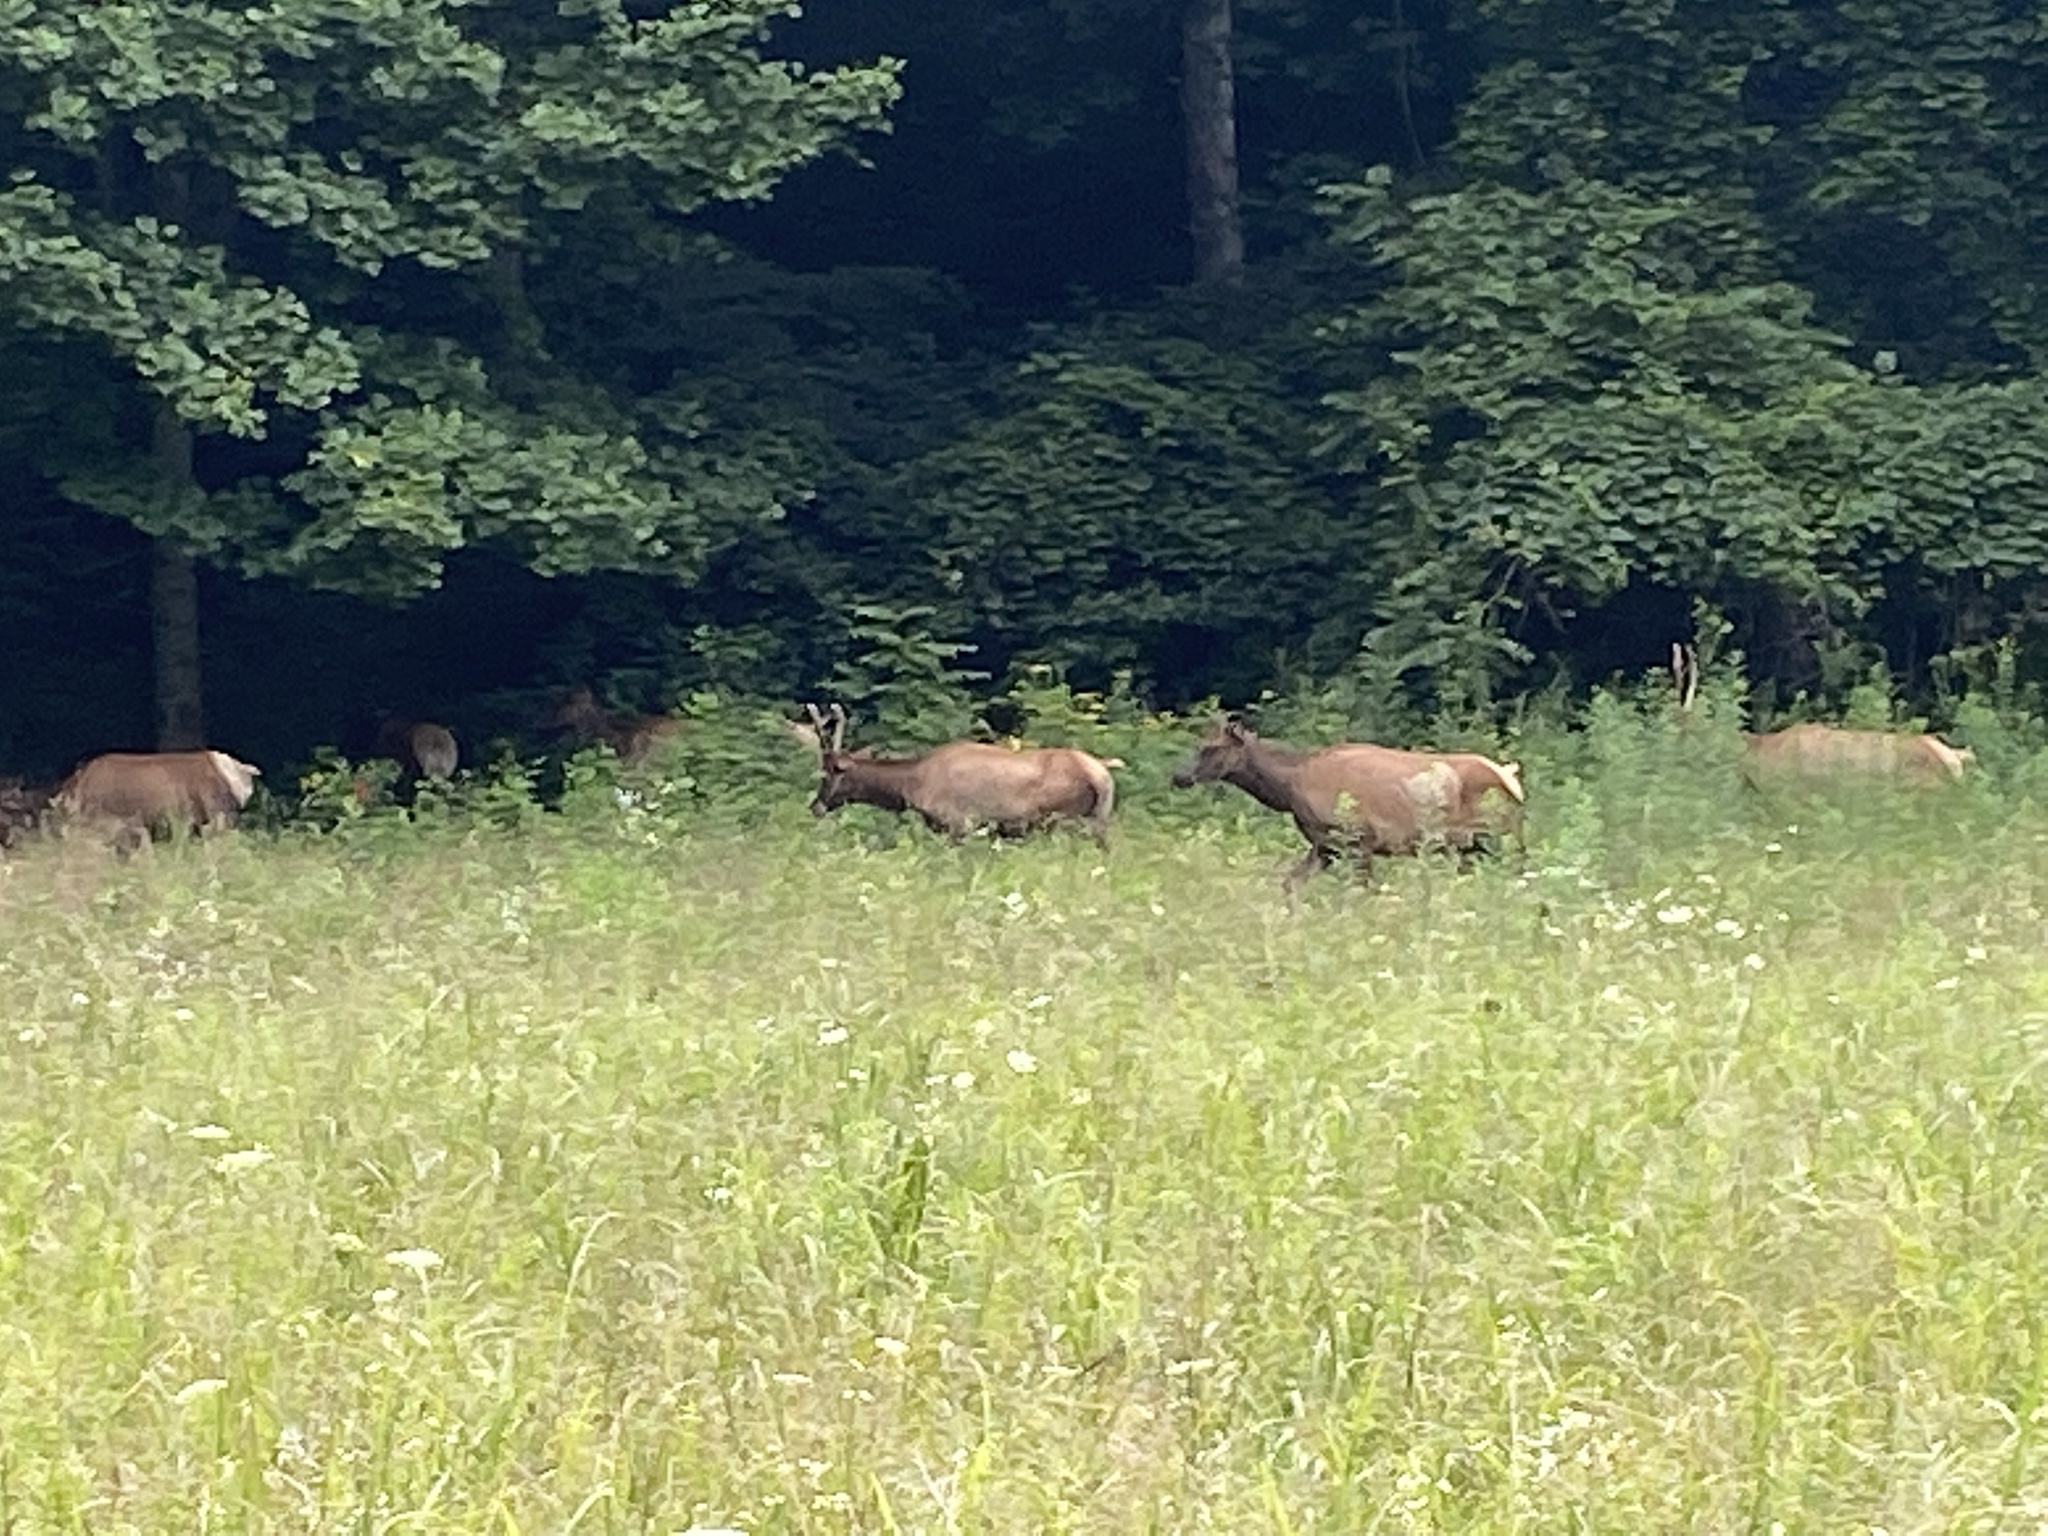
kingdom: Animalia
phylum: Chordata
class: Mammalia
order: Artiodactyla
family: Cervidae
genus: Cervus
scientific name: Cervus elaphus
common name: Red deer
